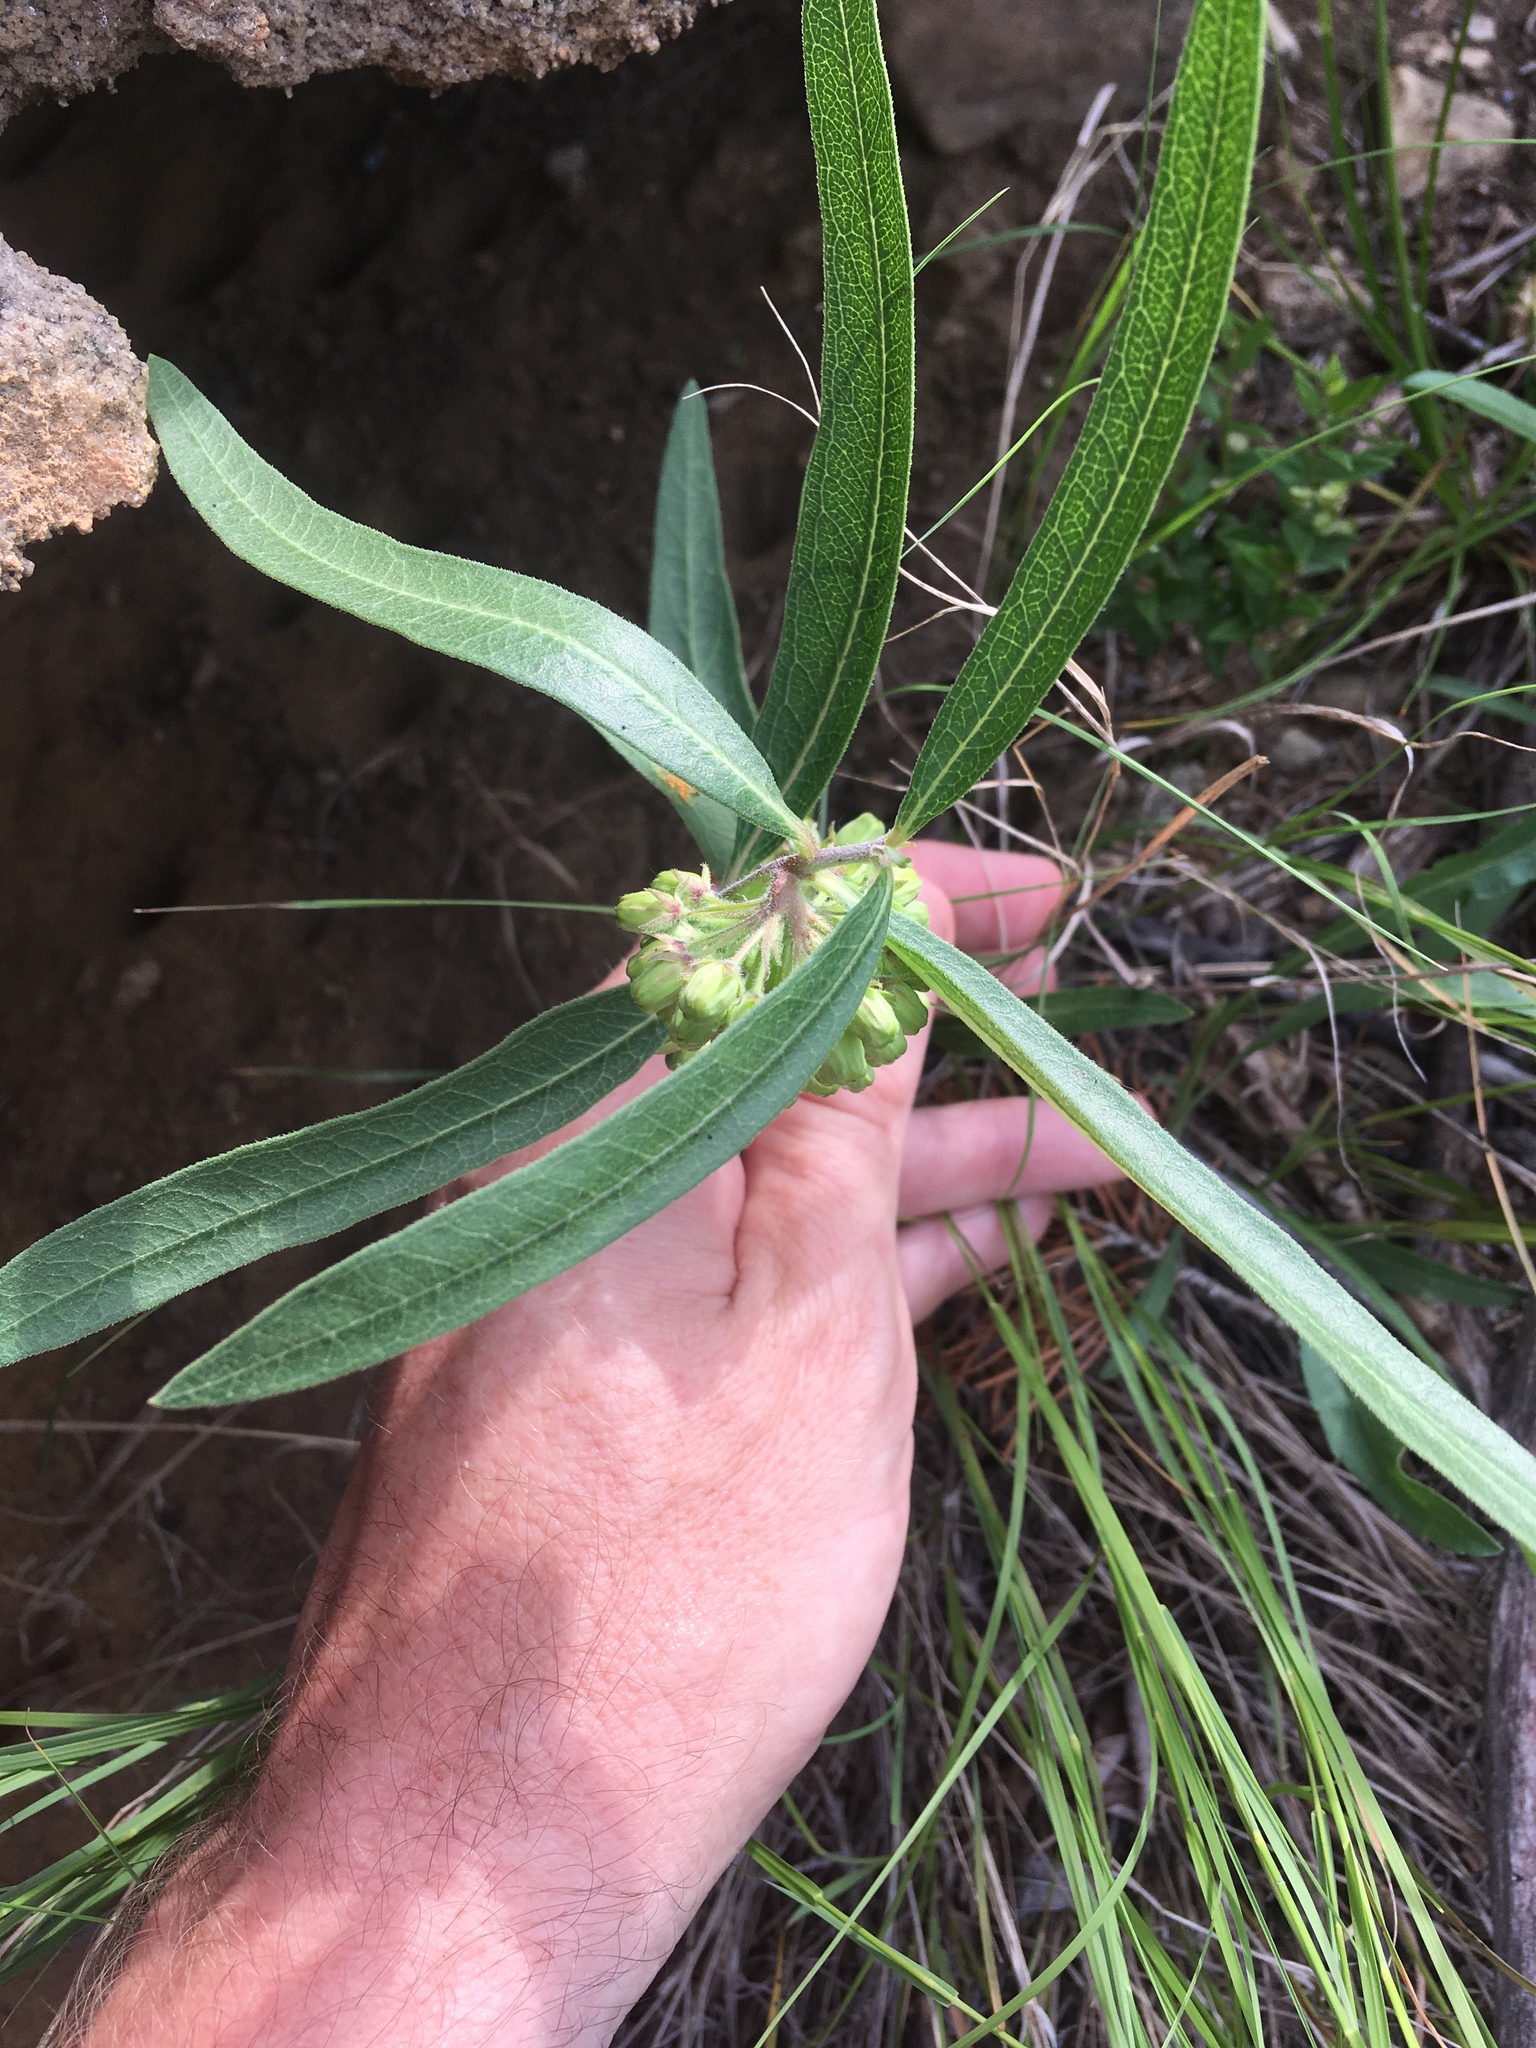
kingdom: Plantae
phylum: Tracheophyta
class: Magnoliopsida
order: Gentianales
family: Apocynaceae
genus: Asclepias
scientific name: Asclepias viridiflora
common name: Green comet milkweed
